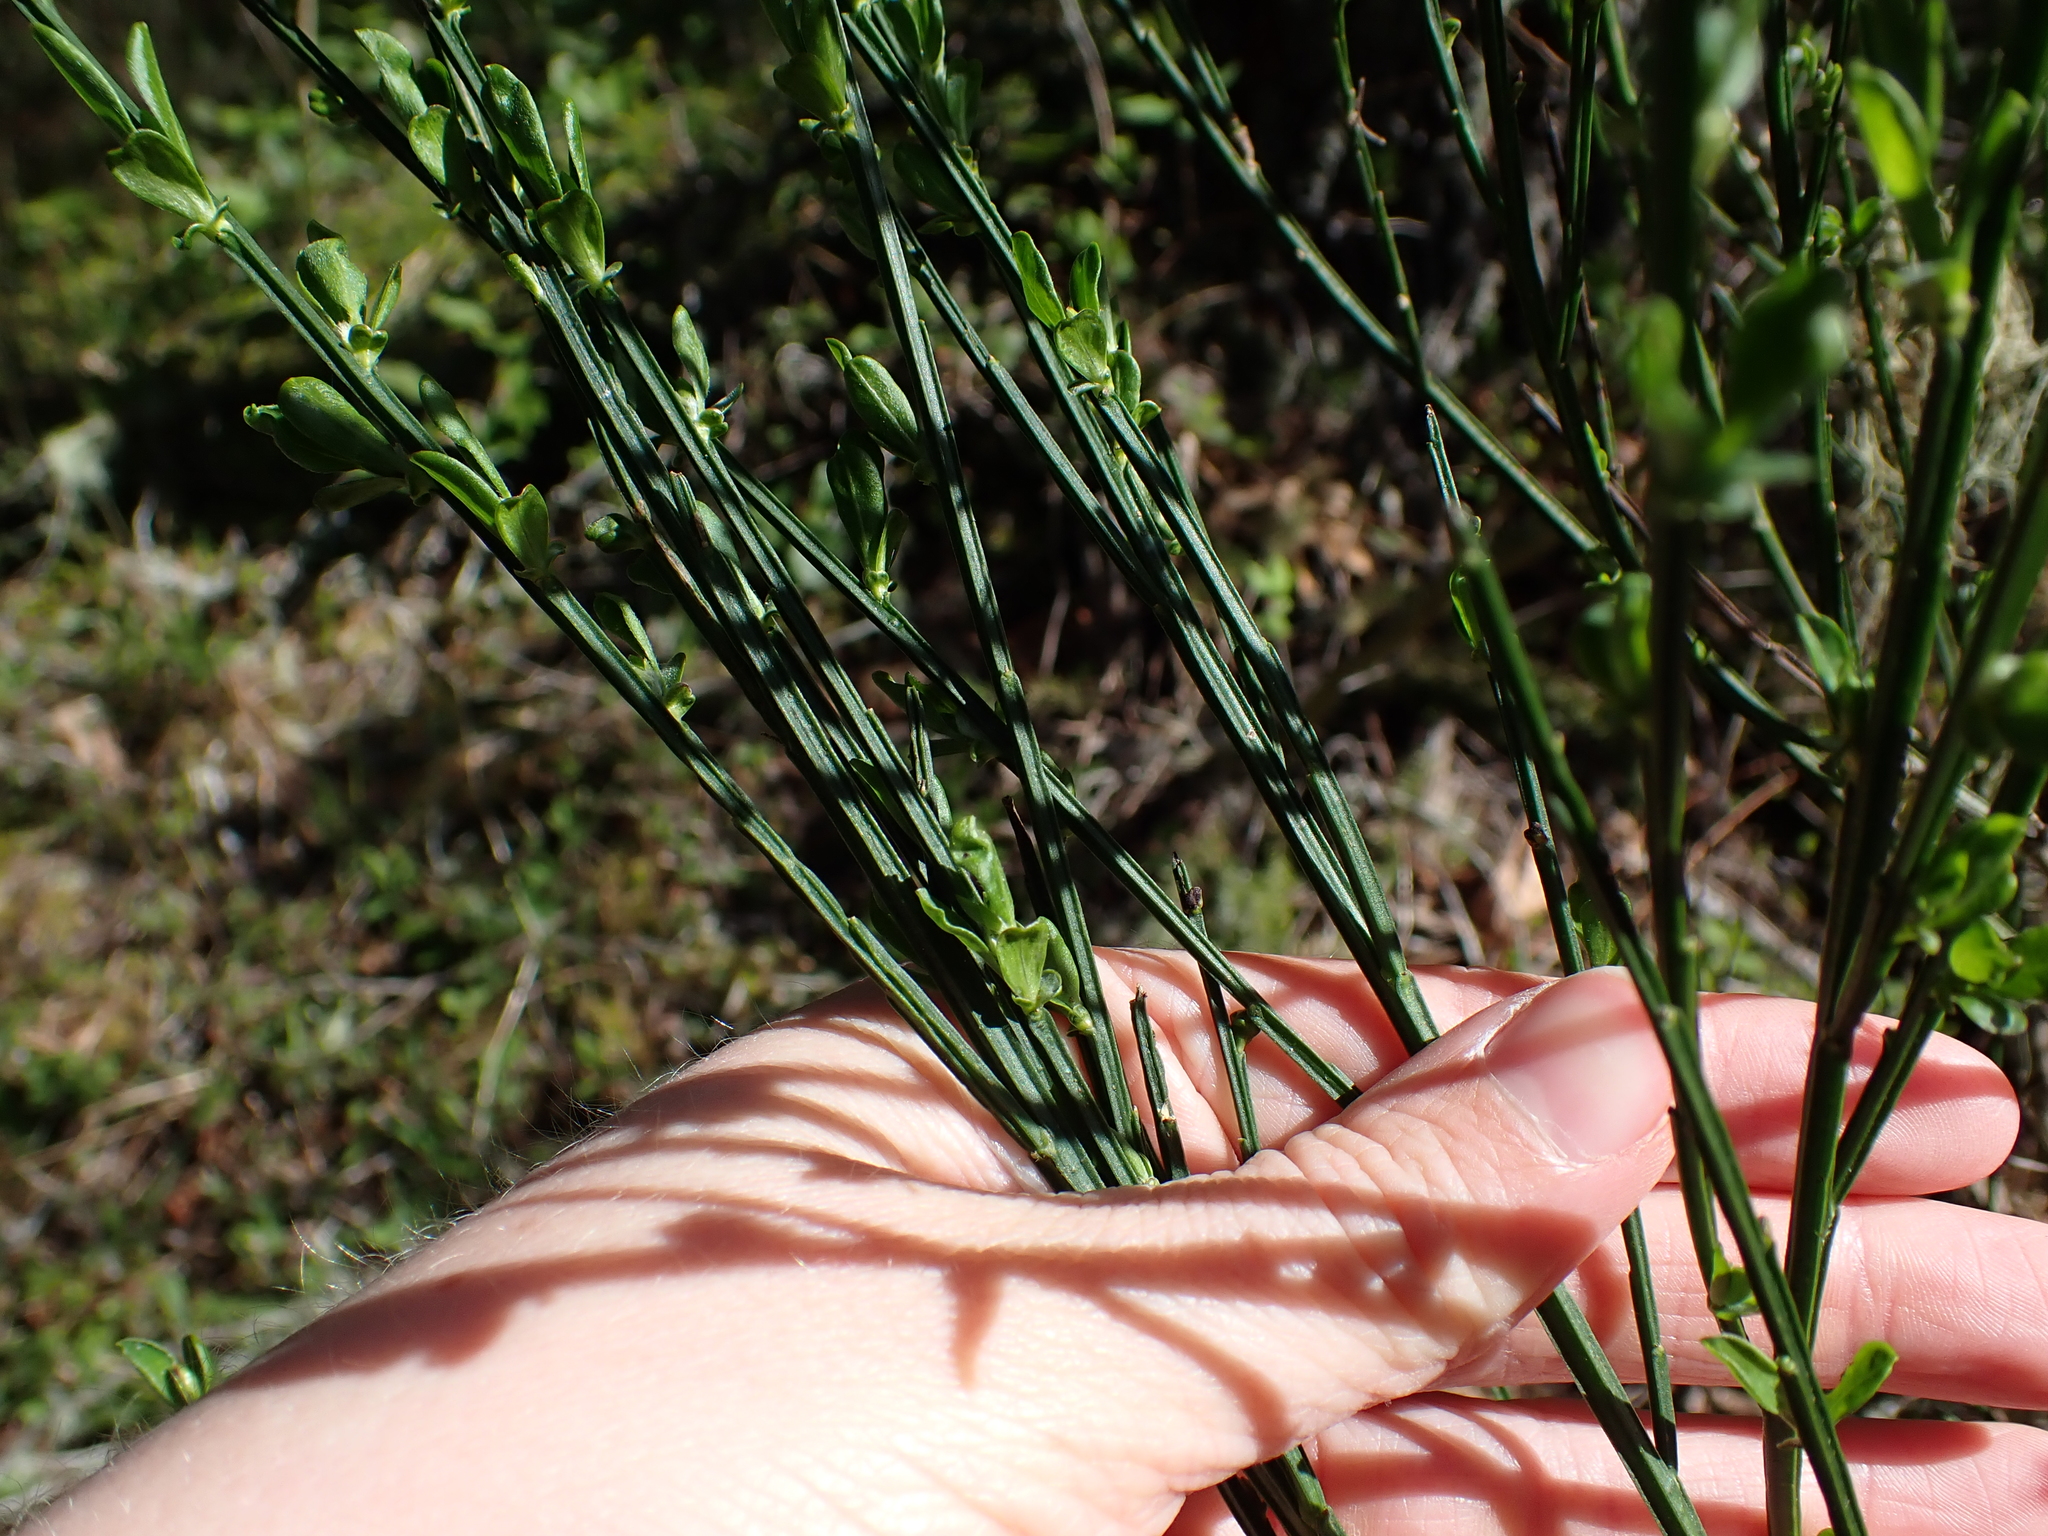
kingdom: Plantae
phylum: Tracheophyta
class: Magnoliopsida
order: Fabales
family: Fabaceae
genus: Cytisus
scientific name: Cytisus scoparius
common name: Scotch broom
